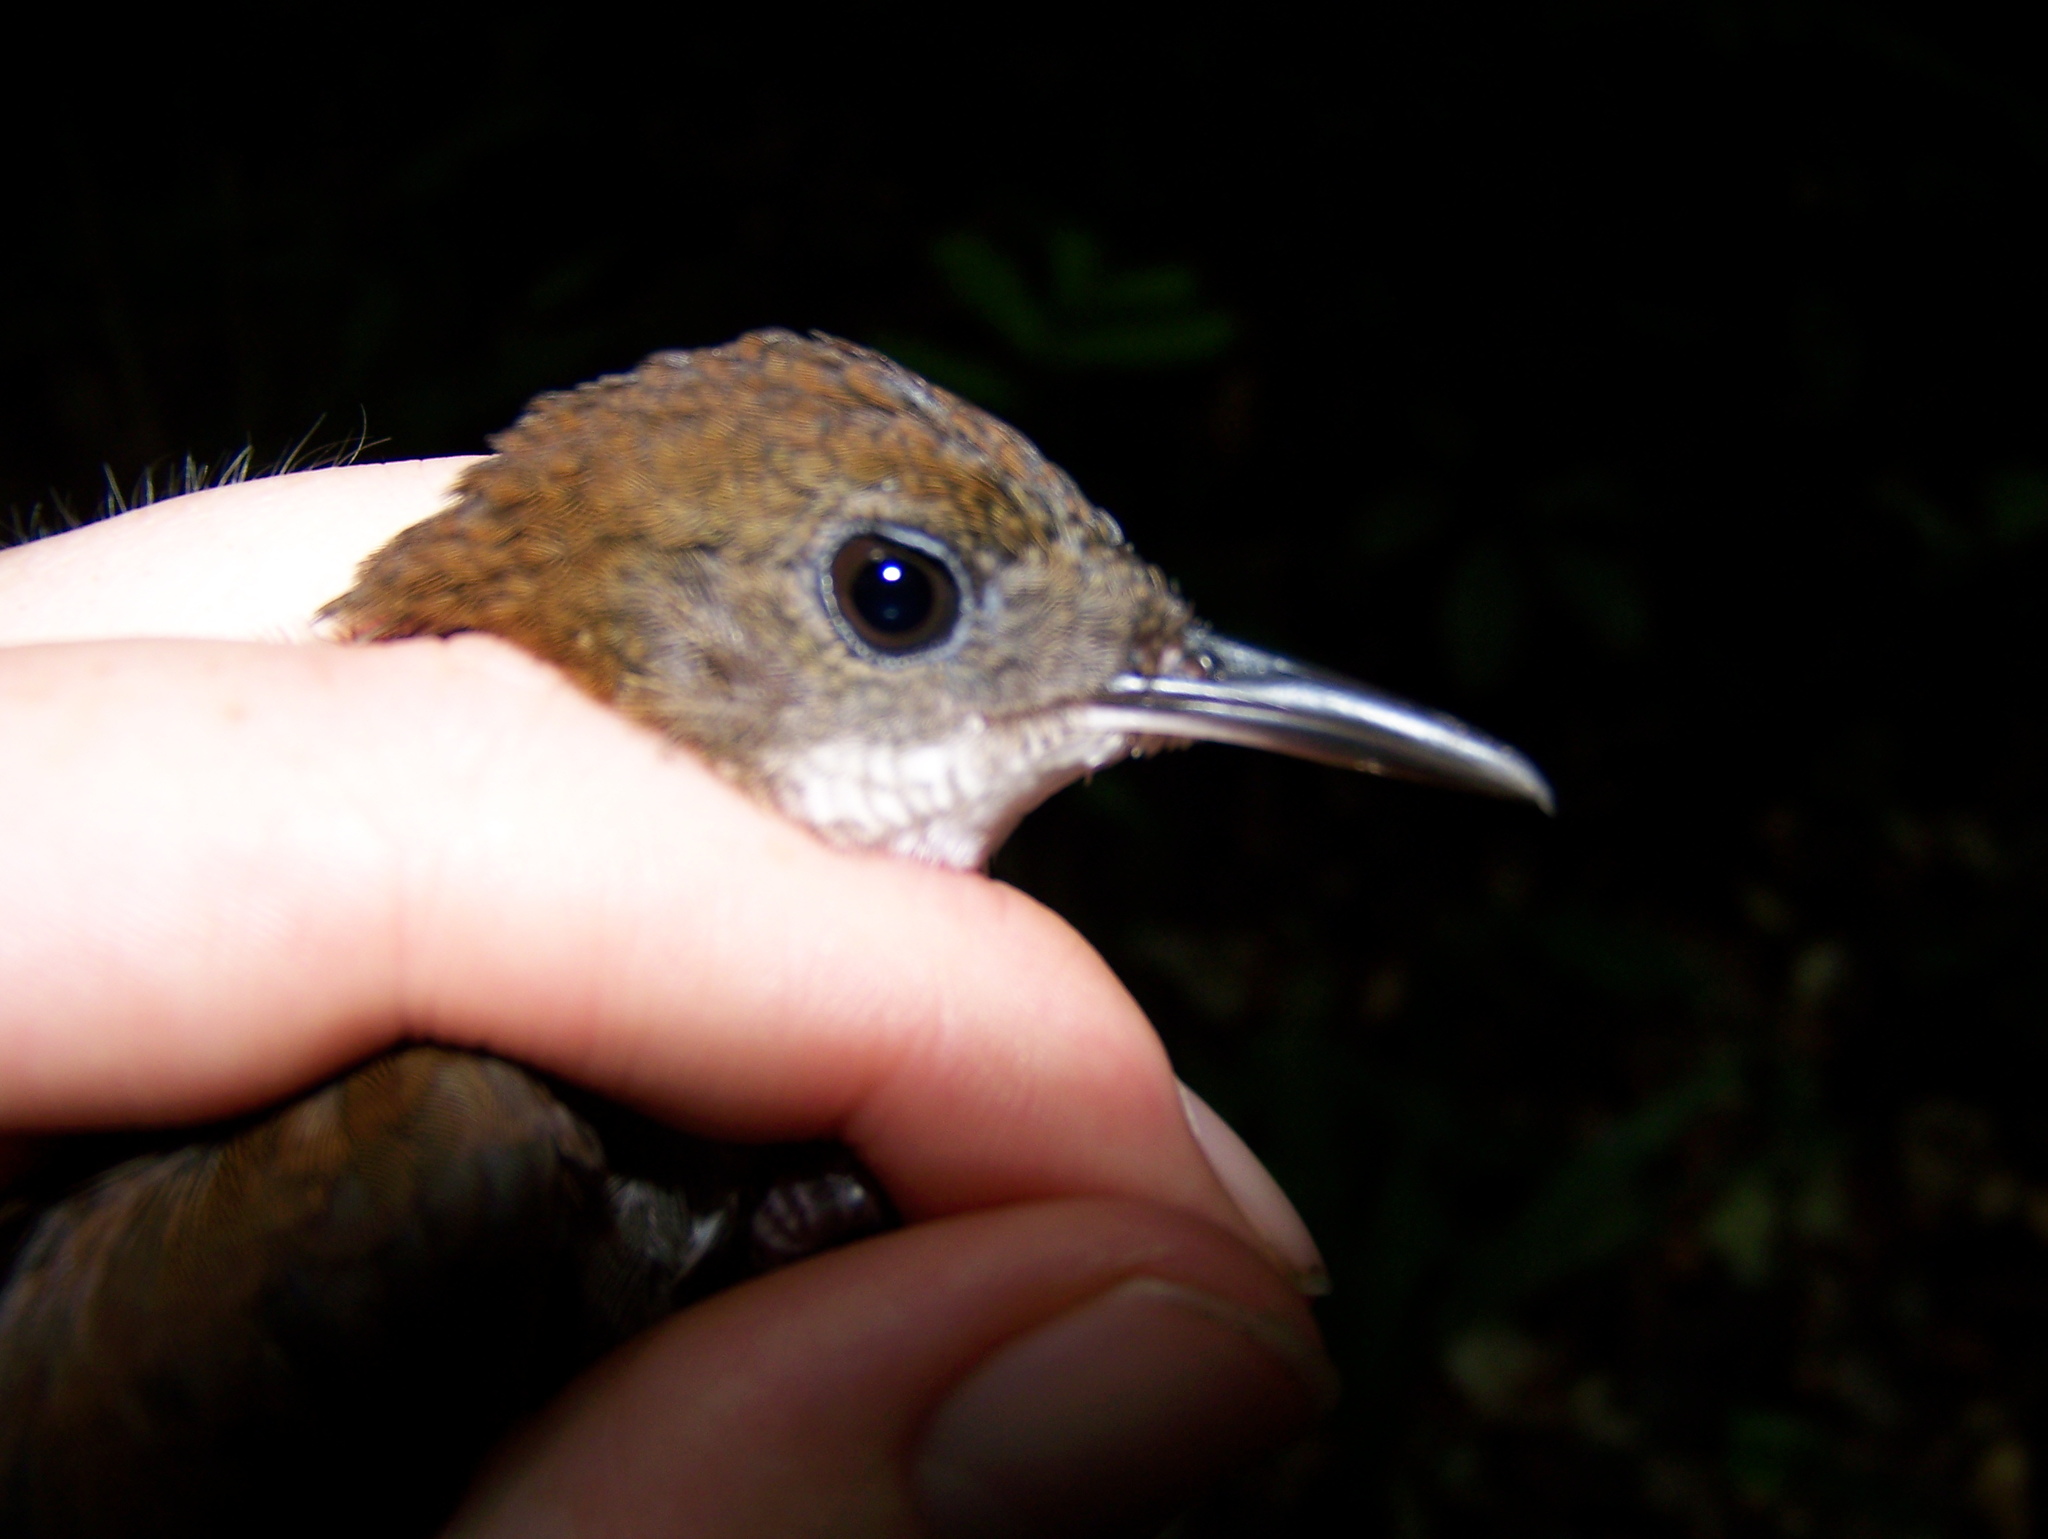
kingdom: Animalia
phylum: Chordata
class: Aves
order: Passeriformes
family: Troglodytidae
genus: Microcerculus
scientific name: Microcerculus marginatus
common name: Southern nightingale-wren
